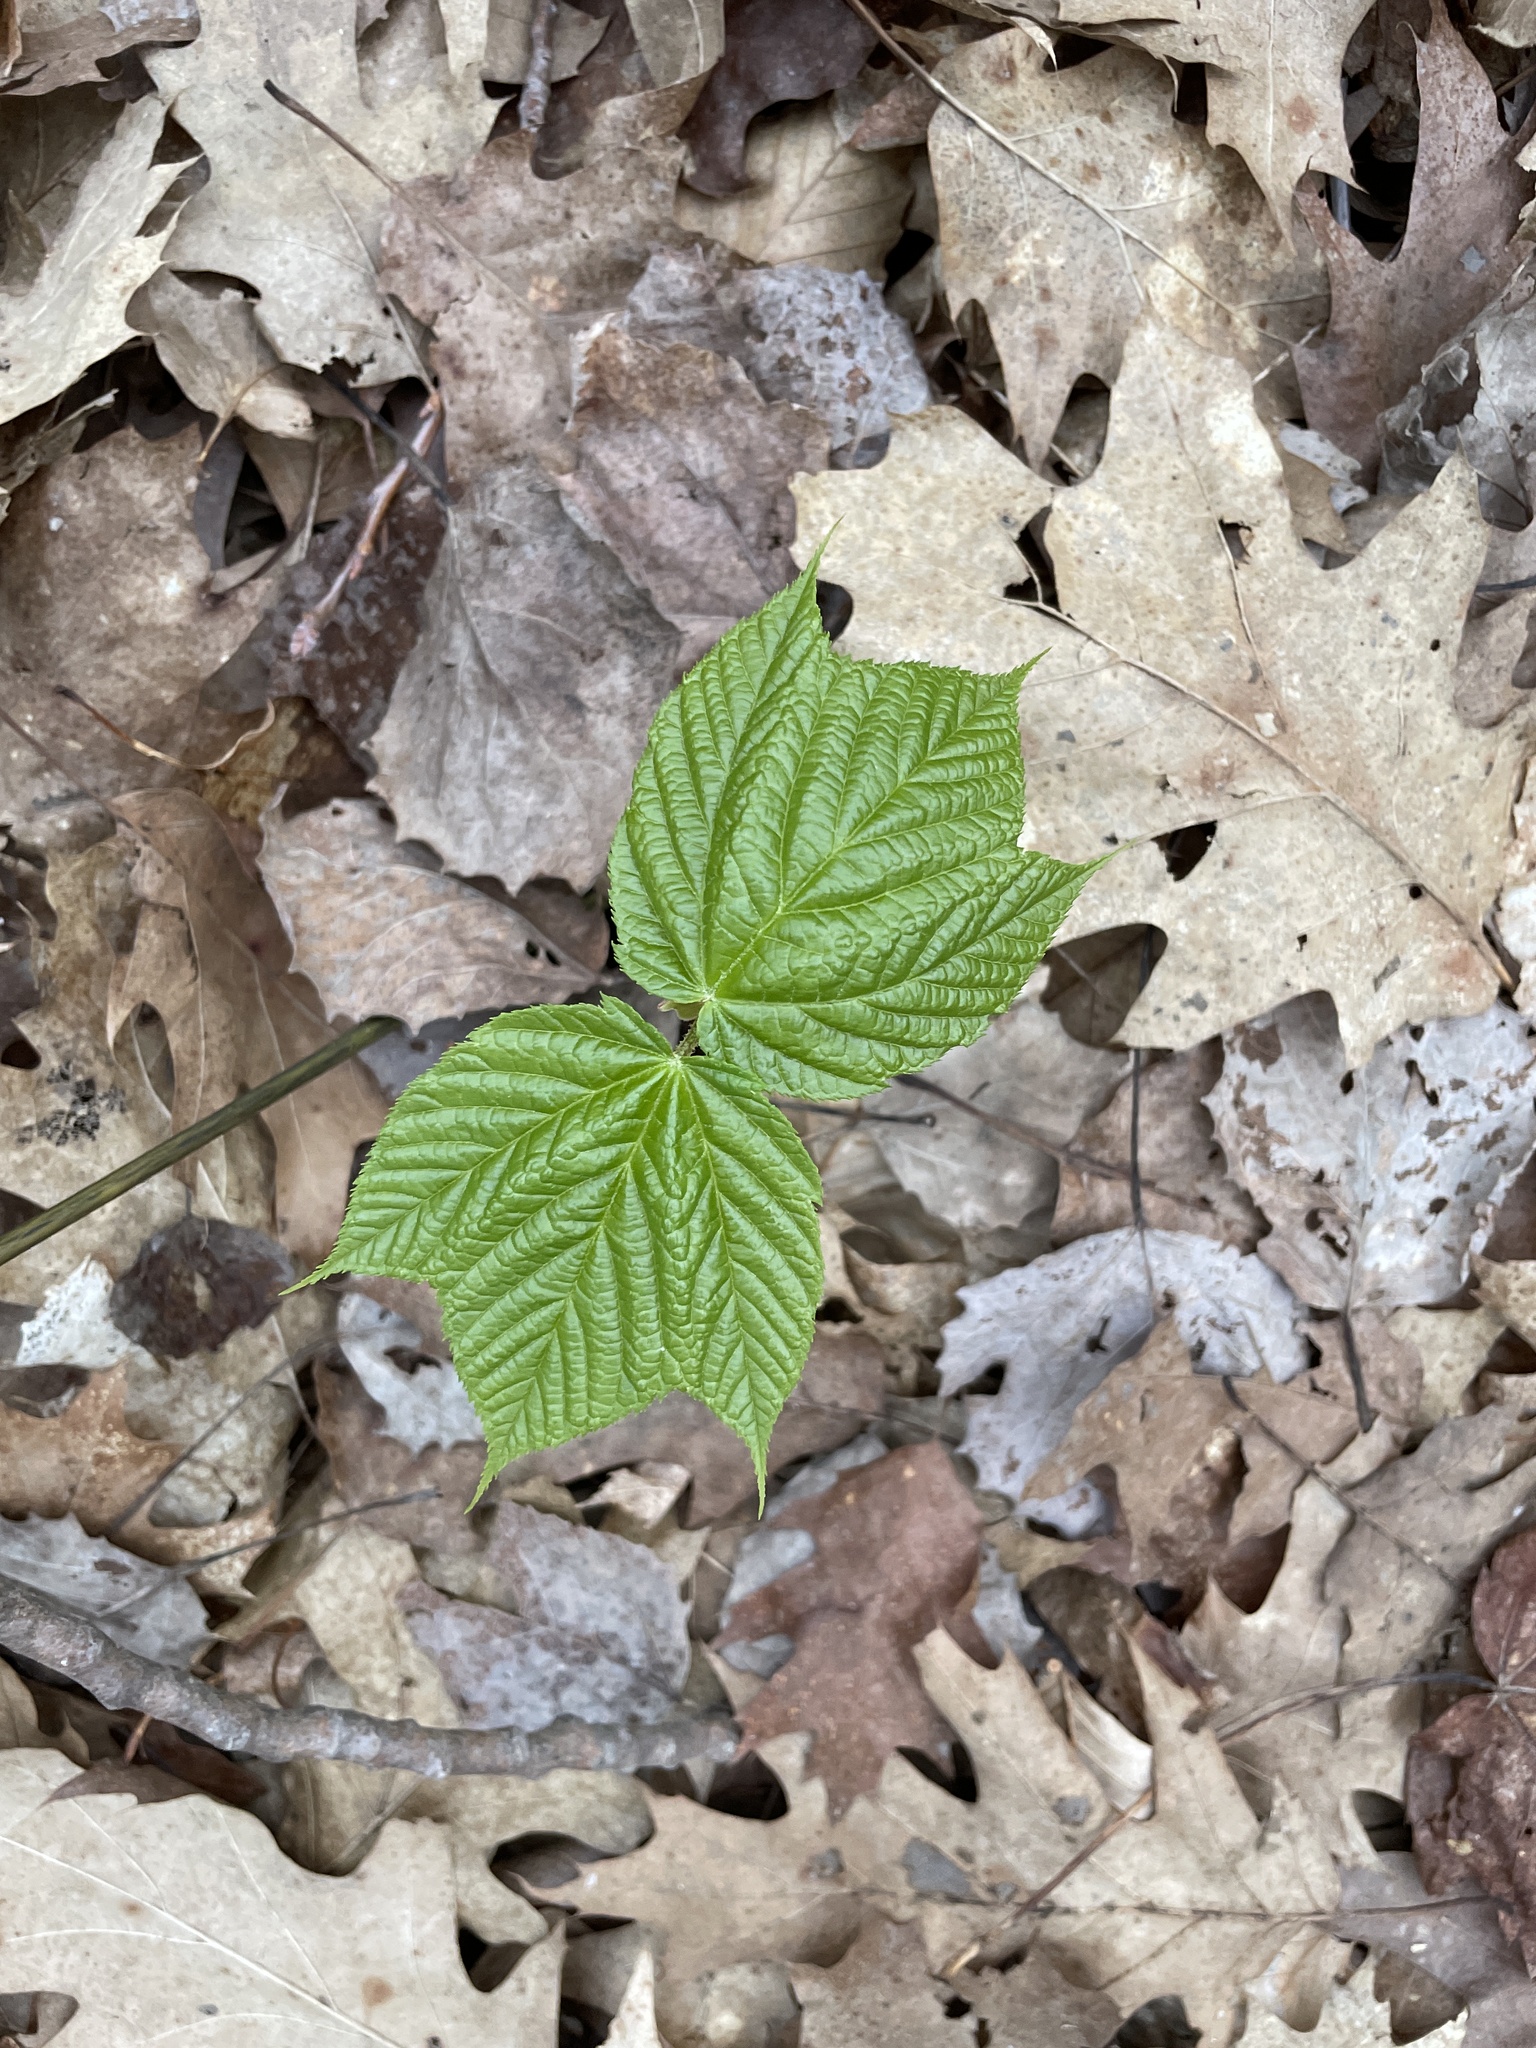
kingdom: Plantae
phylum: Tracheophyta
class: Magnoliopsida
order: Sapindales
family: Sapindaceae
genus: Acer
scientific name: Acer pensylvanicum
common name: Moosewood
